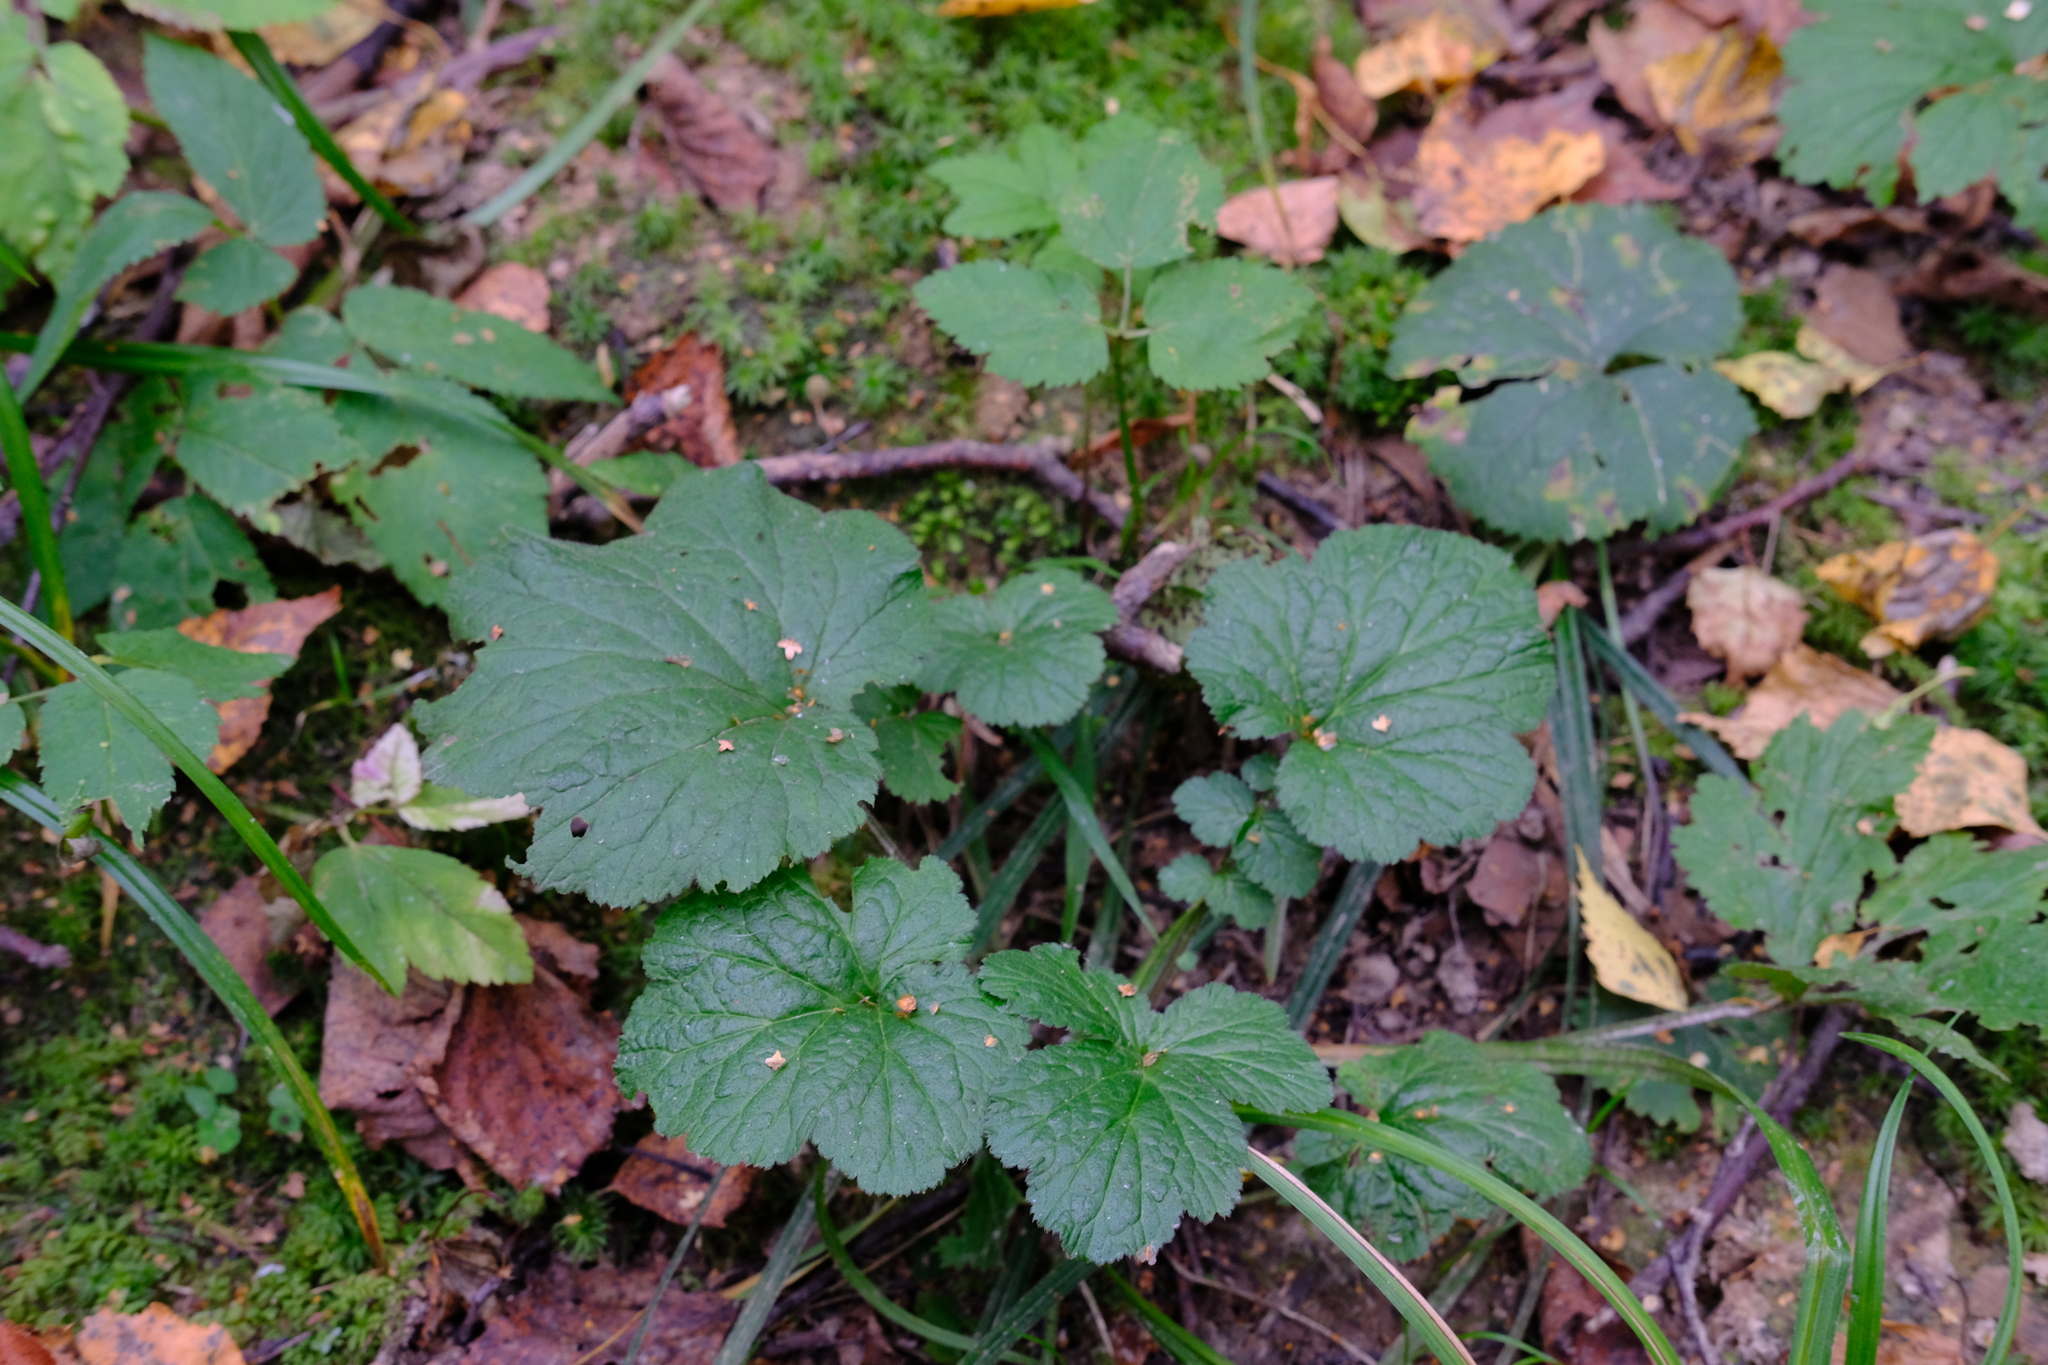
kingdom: Plantae
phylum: Tracheophyta
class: Magnoliopsida
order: Rosales
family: Rosaceae
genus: Geum
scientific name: Geum
